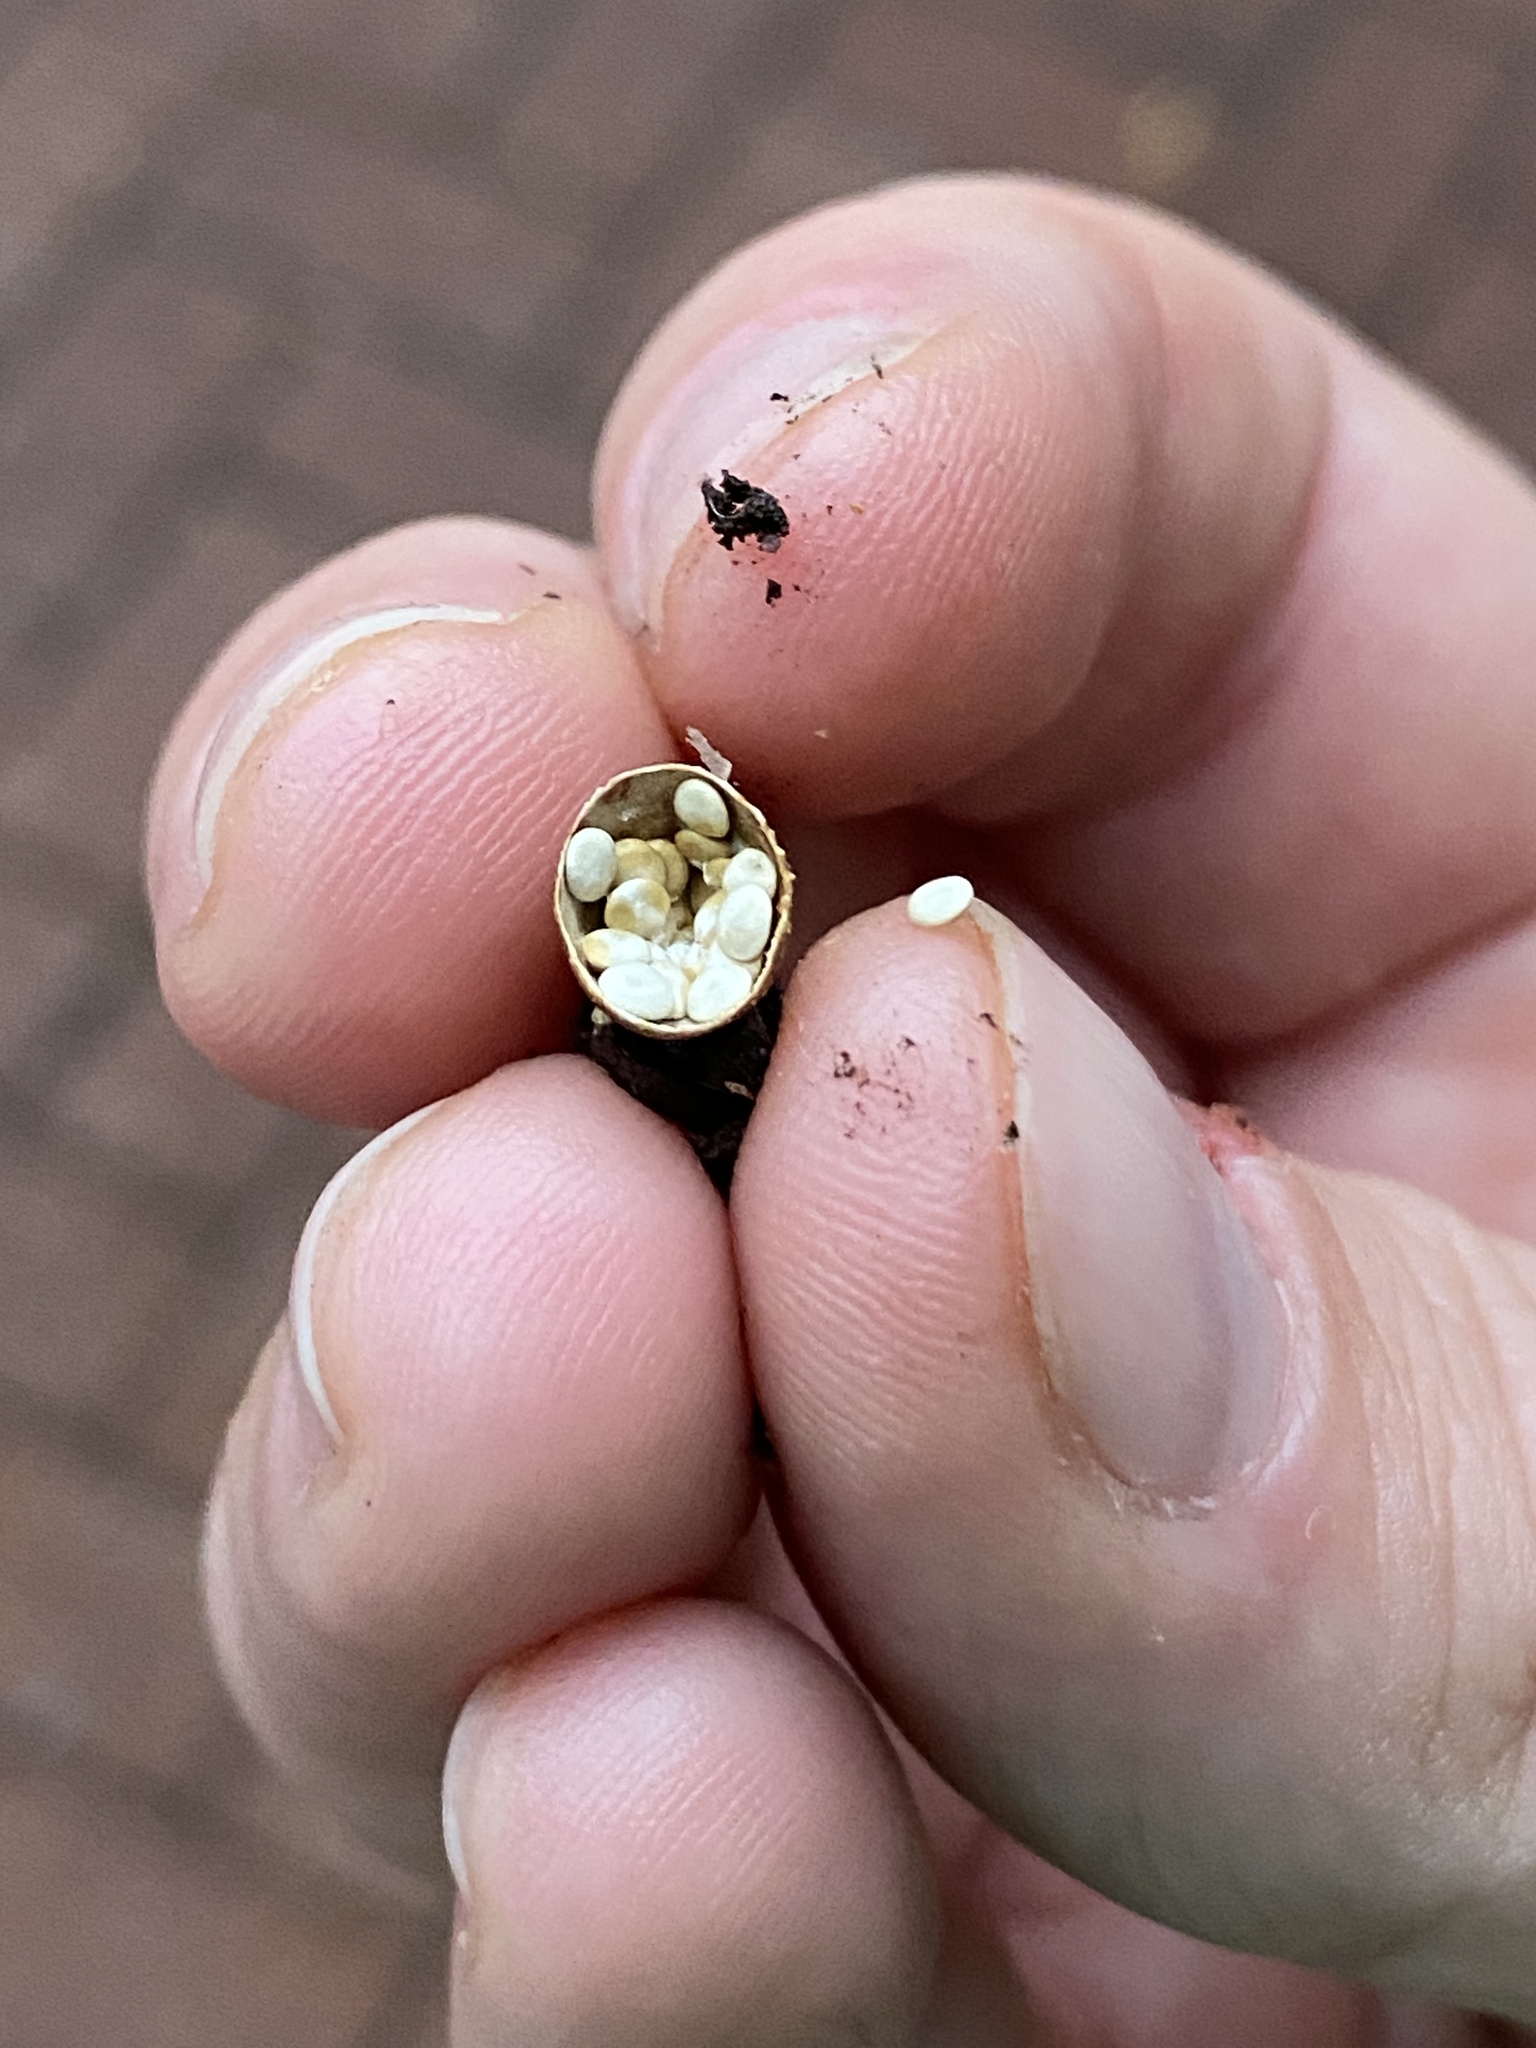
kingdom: Fungi
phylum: Basidiomycota
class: Agaricomycetes
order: Agaricales
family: Nidulariaceae
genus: Crucibulum
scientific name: Crucibulum laeve
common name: Common bird's nest
